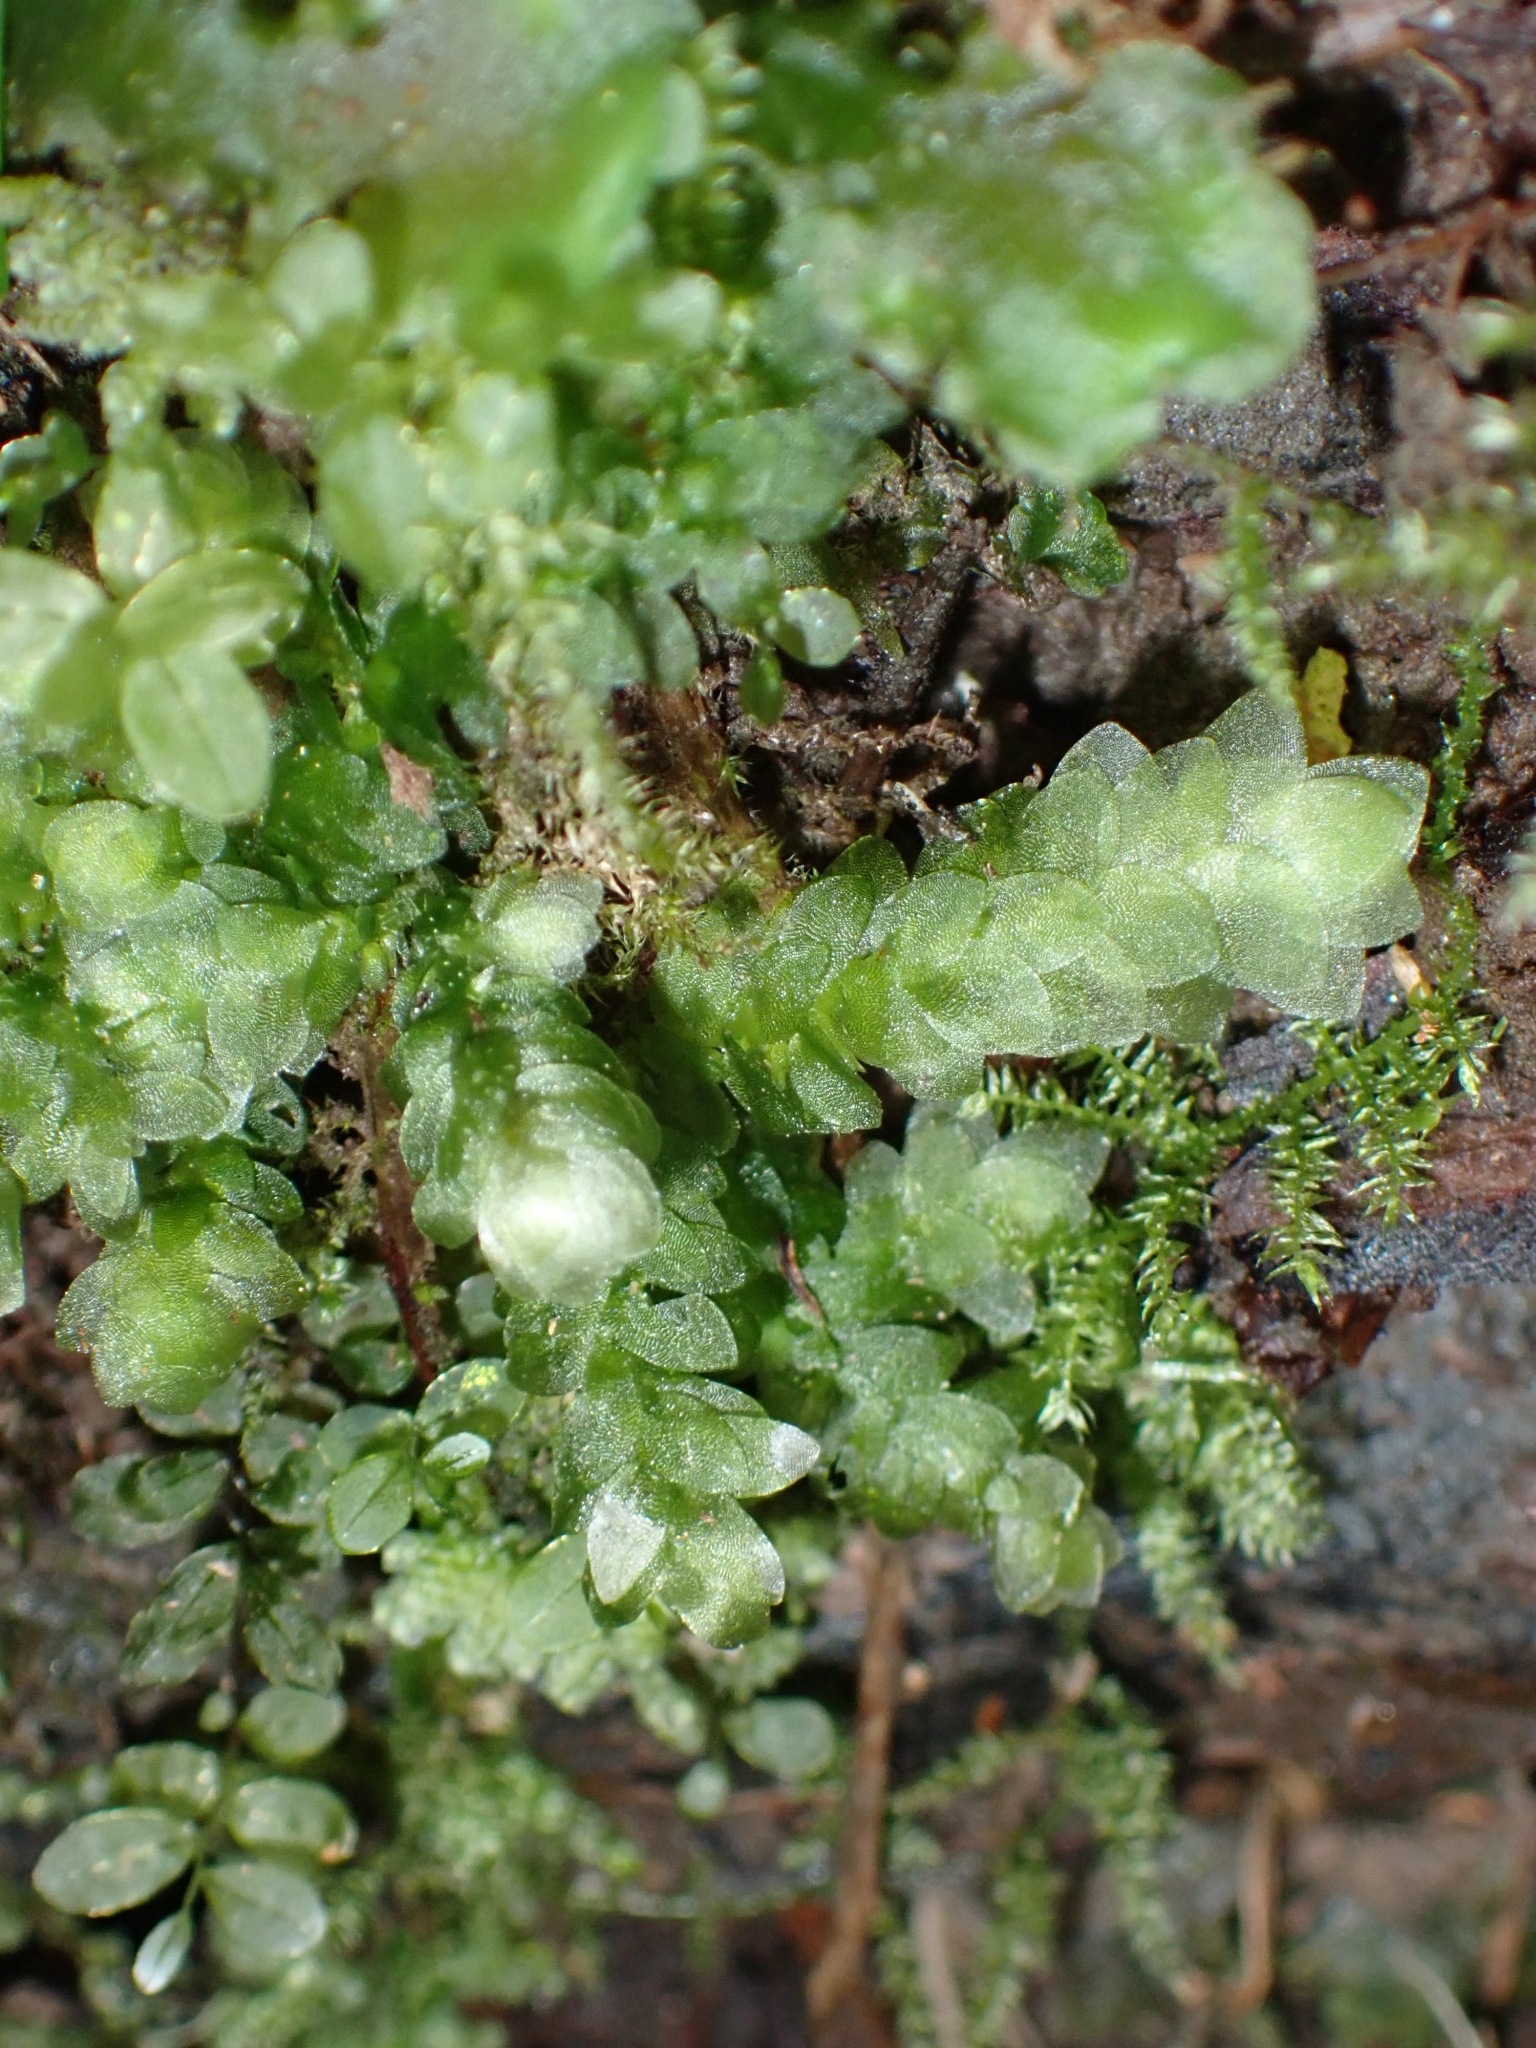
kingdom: Plantae
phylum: Bryophyta
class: Bryopsida
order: Hookeriales
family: Hookeriaceae
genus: Hookeria
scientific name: Hookeria lucens
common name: Shining hookeria
